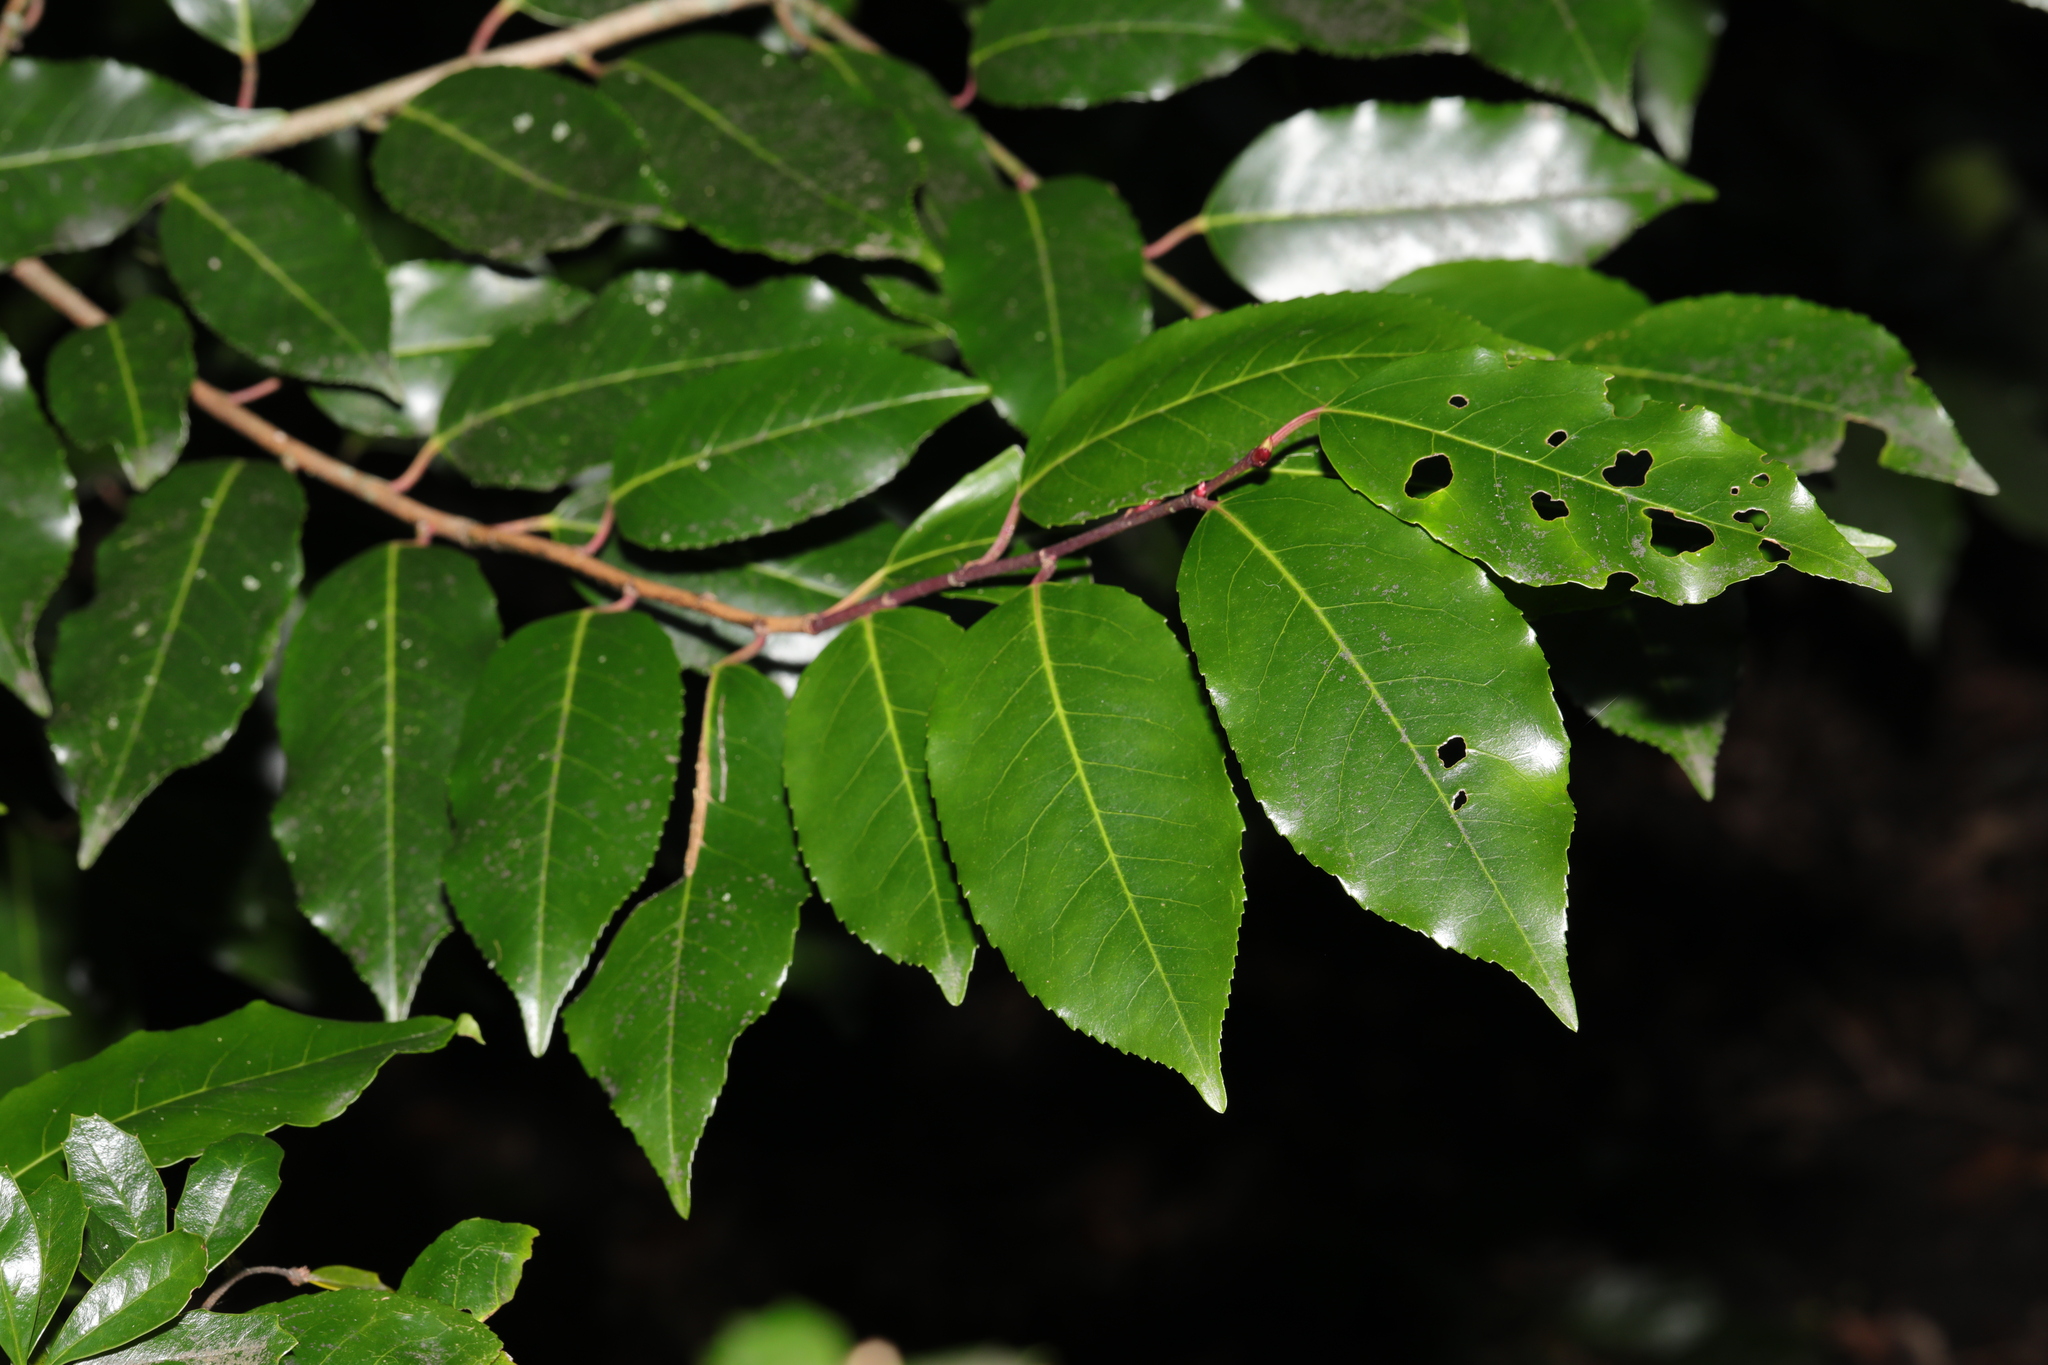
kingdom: Plantae
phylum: Tracheophyta
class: Magnoliopsida
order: Rosales
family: Rosaceae
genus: Prunus
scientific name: Prunus lusitanica
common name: Portugal laurel
